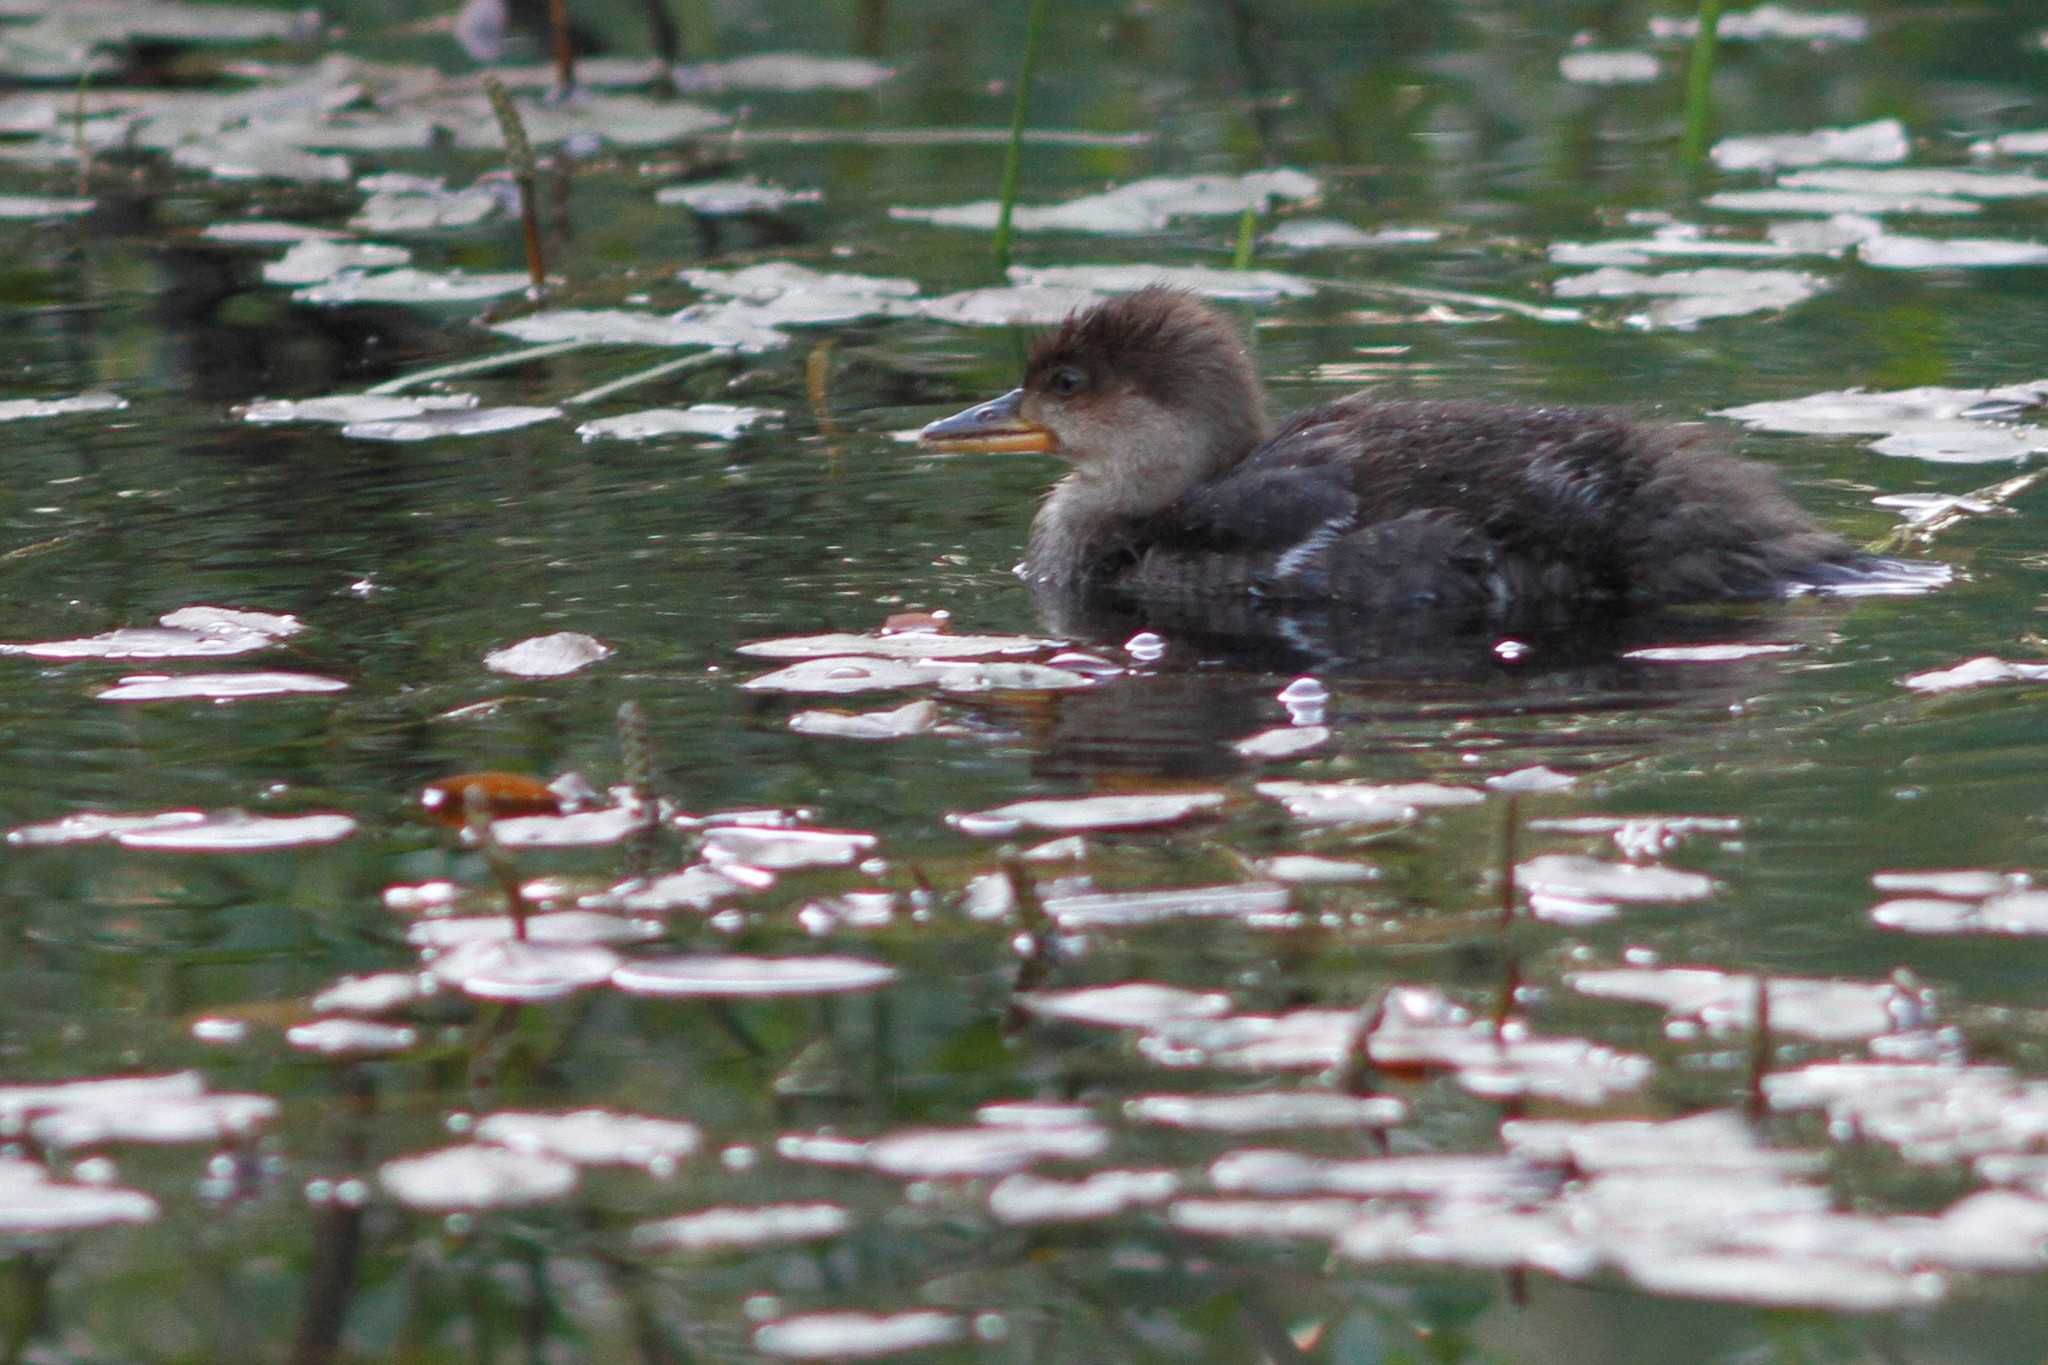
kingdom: Animalia
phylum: Chordata
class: Aves
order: Anseriformes
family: Anatidae
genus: Lophodytes
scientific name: Lophodytes cucullatus
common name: Hooded merganser
